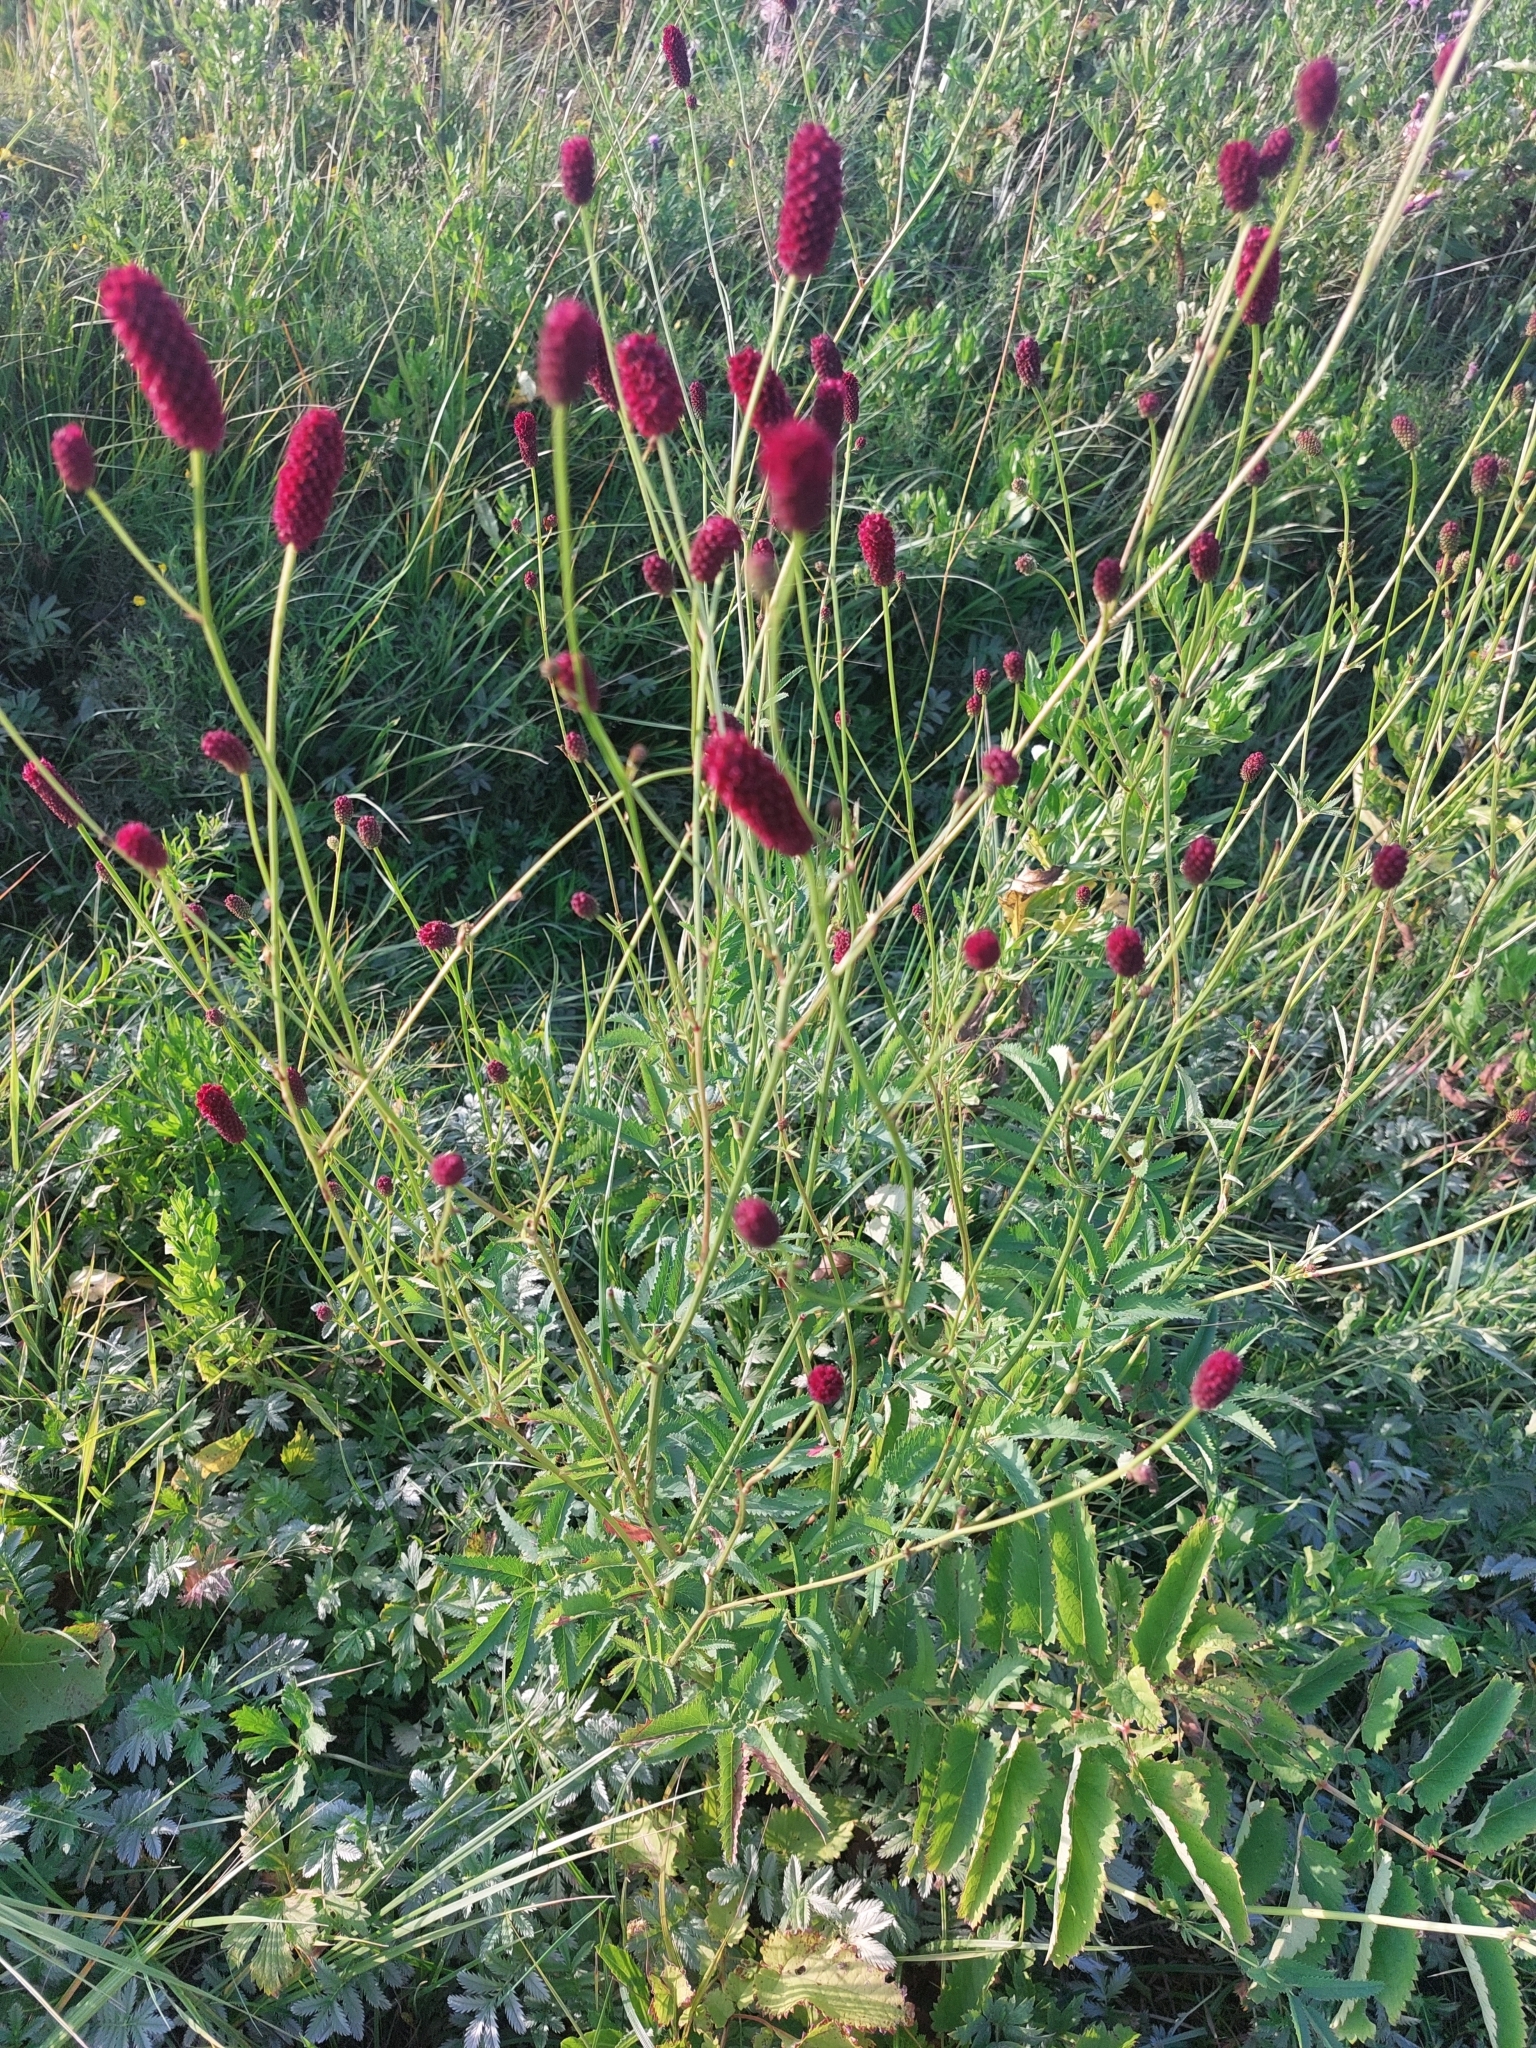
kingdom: Plantae
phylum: Tracheophyta
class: Magnoliopsida
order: Rosales
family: Rosaceae
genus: Sanguisorba
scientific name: Sanguisorba officinalis
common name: Great burnet
